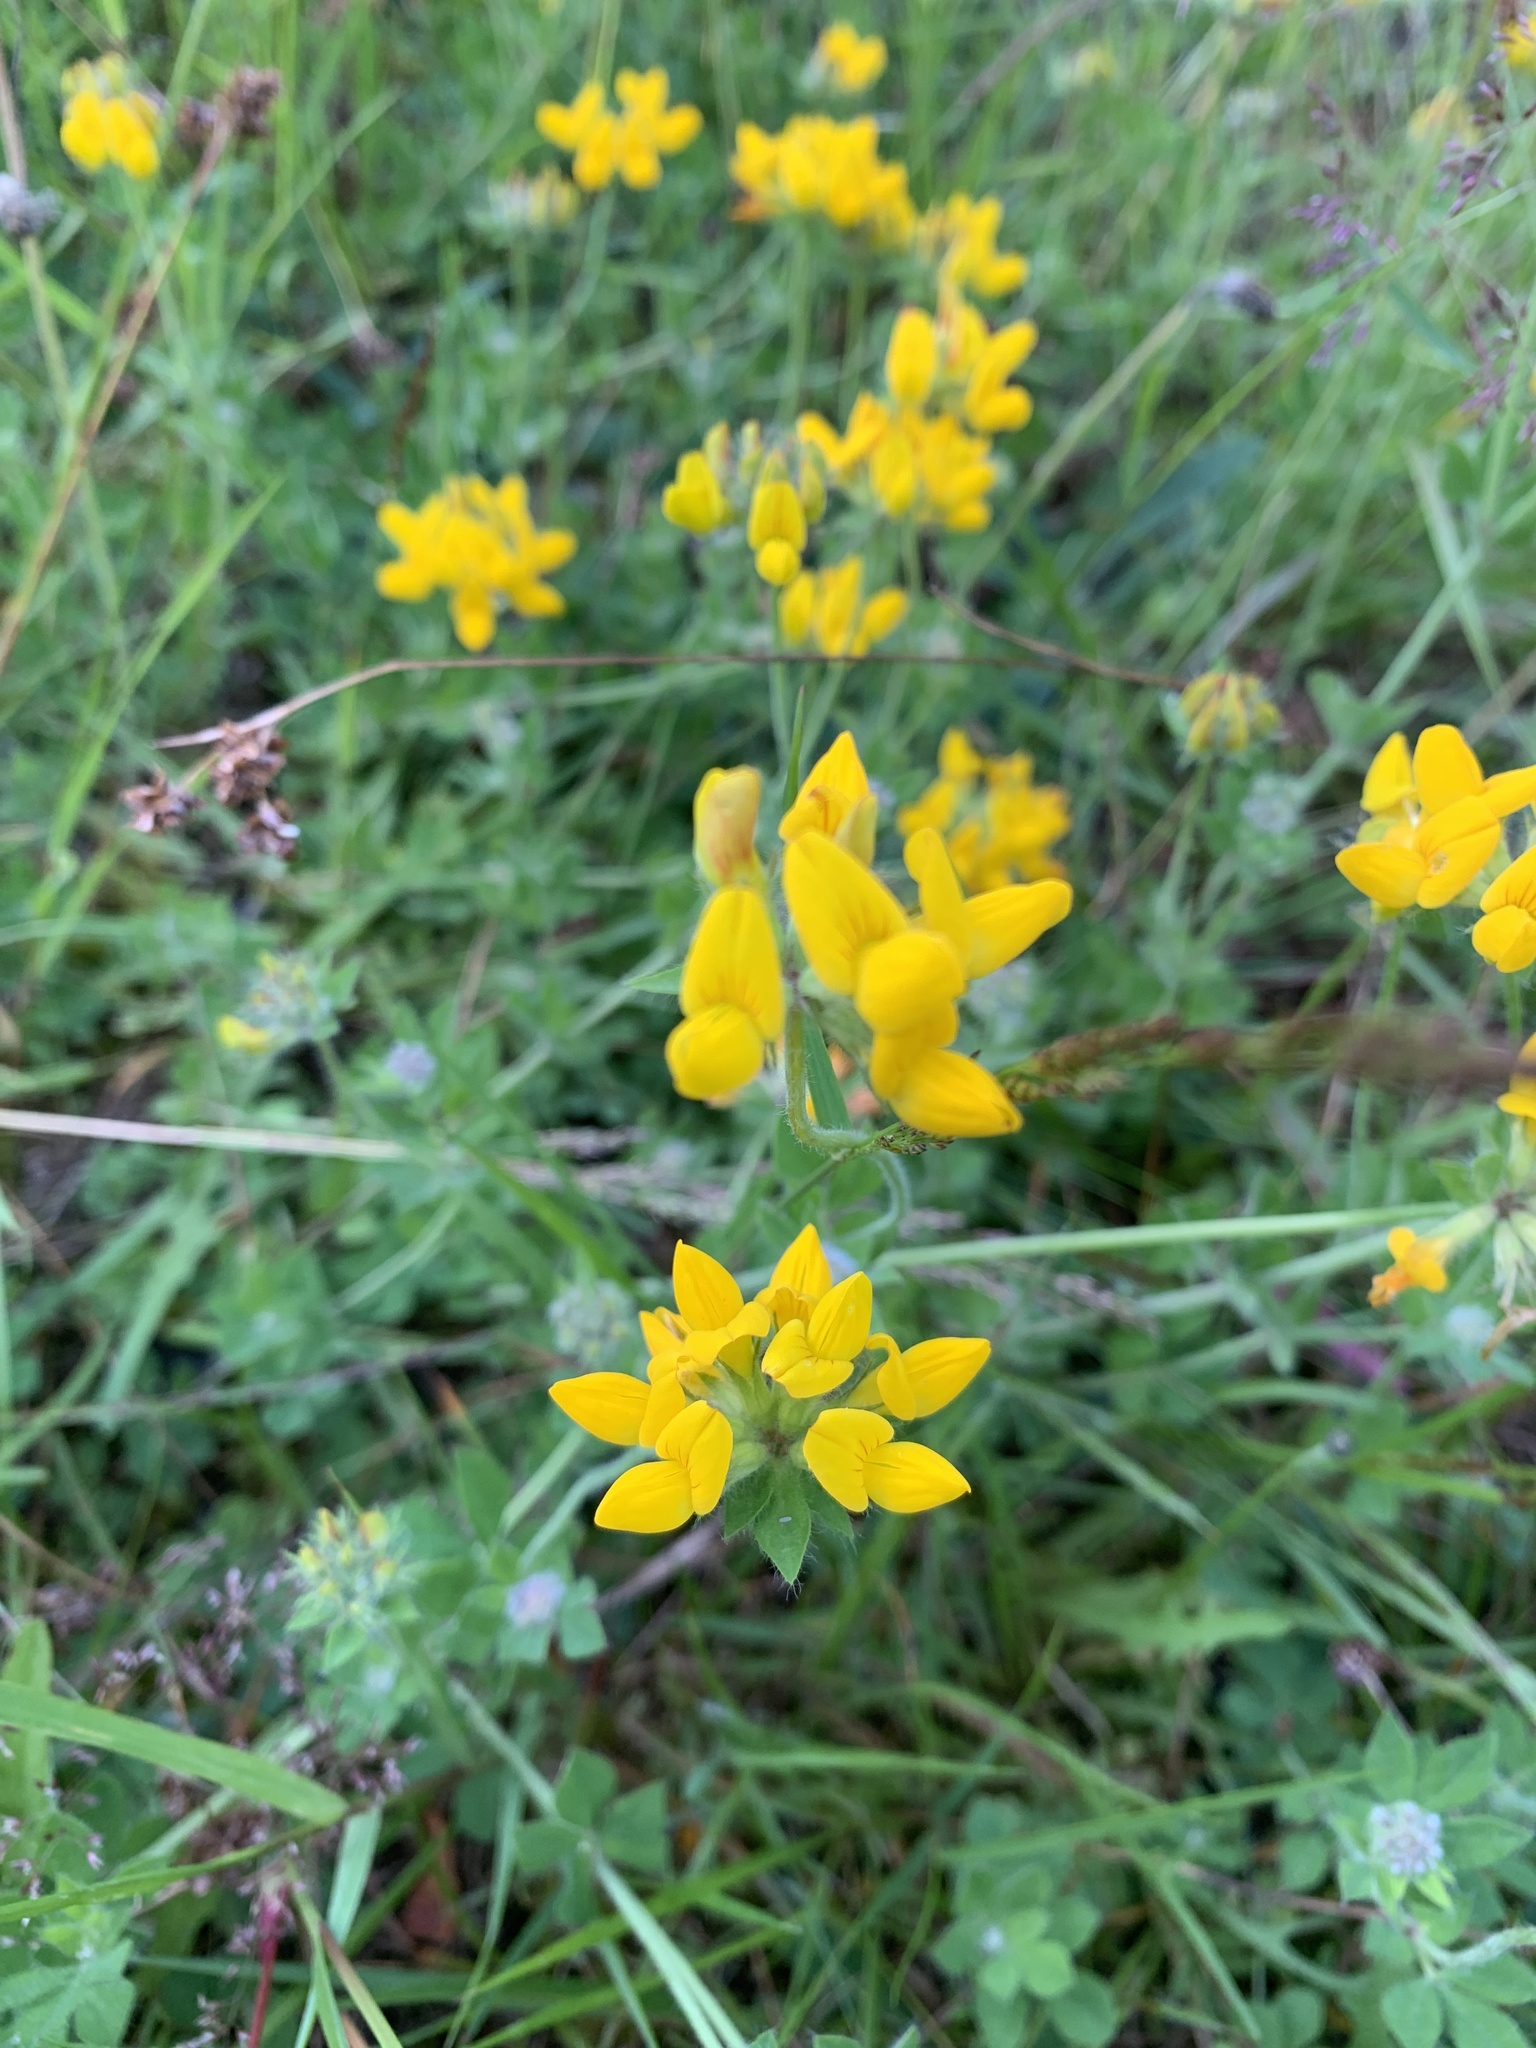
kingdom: Plantae
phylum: Tracheophyta
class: Magnoliopsida
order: Fabales
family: Fabaceae
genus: Lotus
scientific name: Lotus pedunculatus
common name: Greater birdsfoot-trefoil
